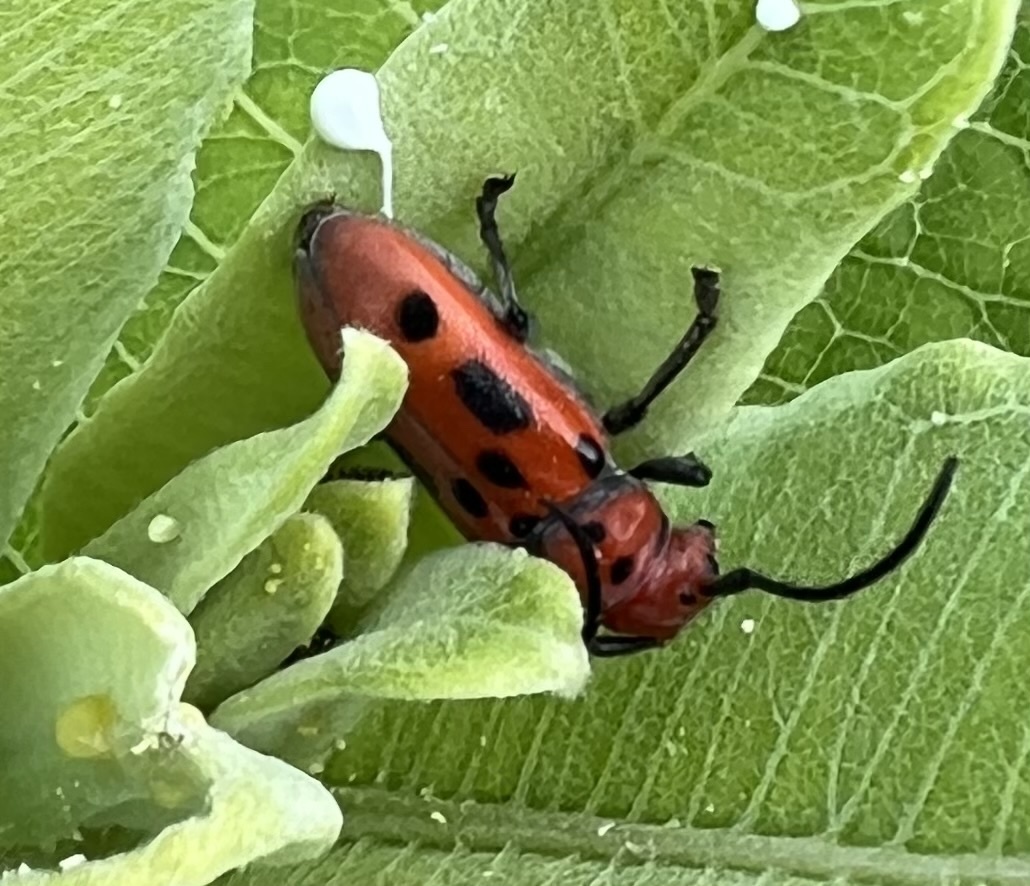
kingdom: Animalia
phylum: Arthropoda
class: Insecta
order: Coleoptera
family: Cerambycidae
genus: Tetraopes
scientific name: Tetraopes tetrophthalmus
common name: Red milkweed beetle
